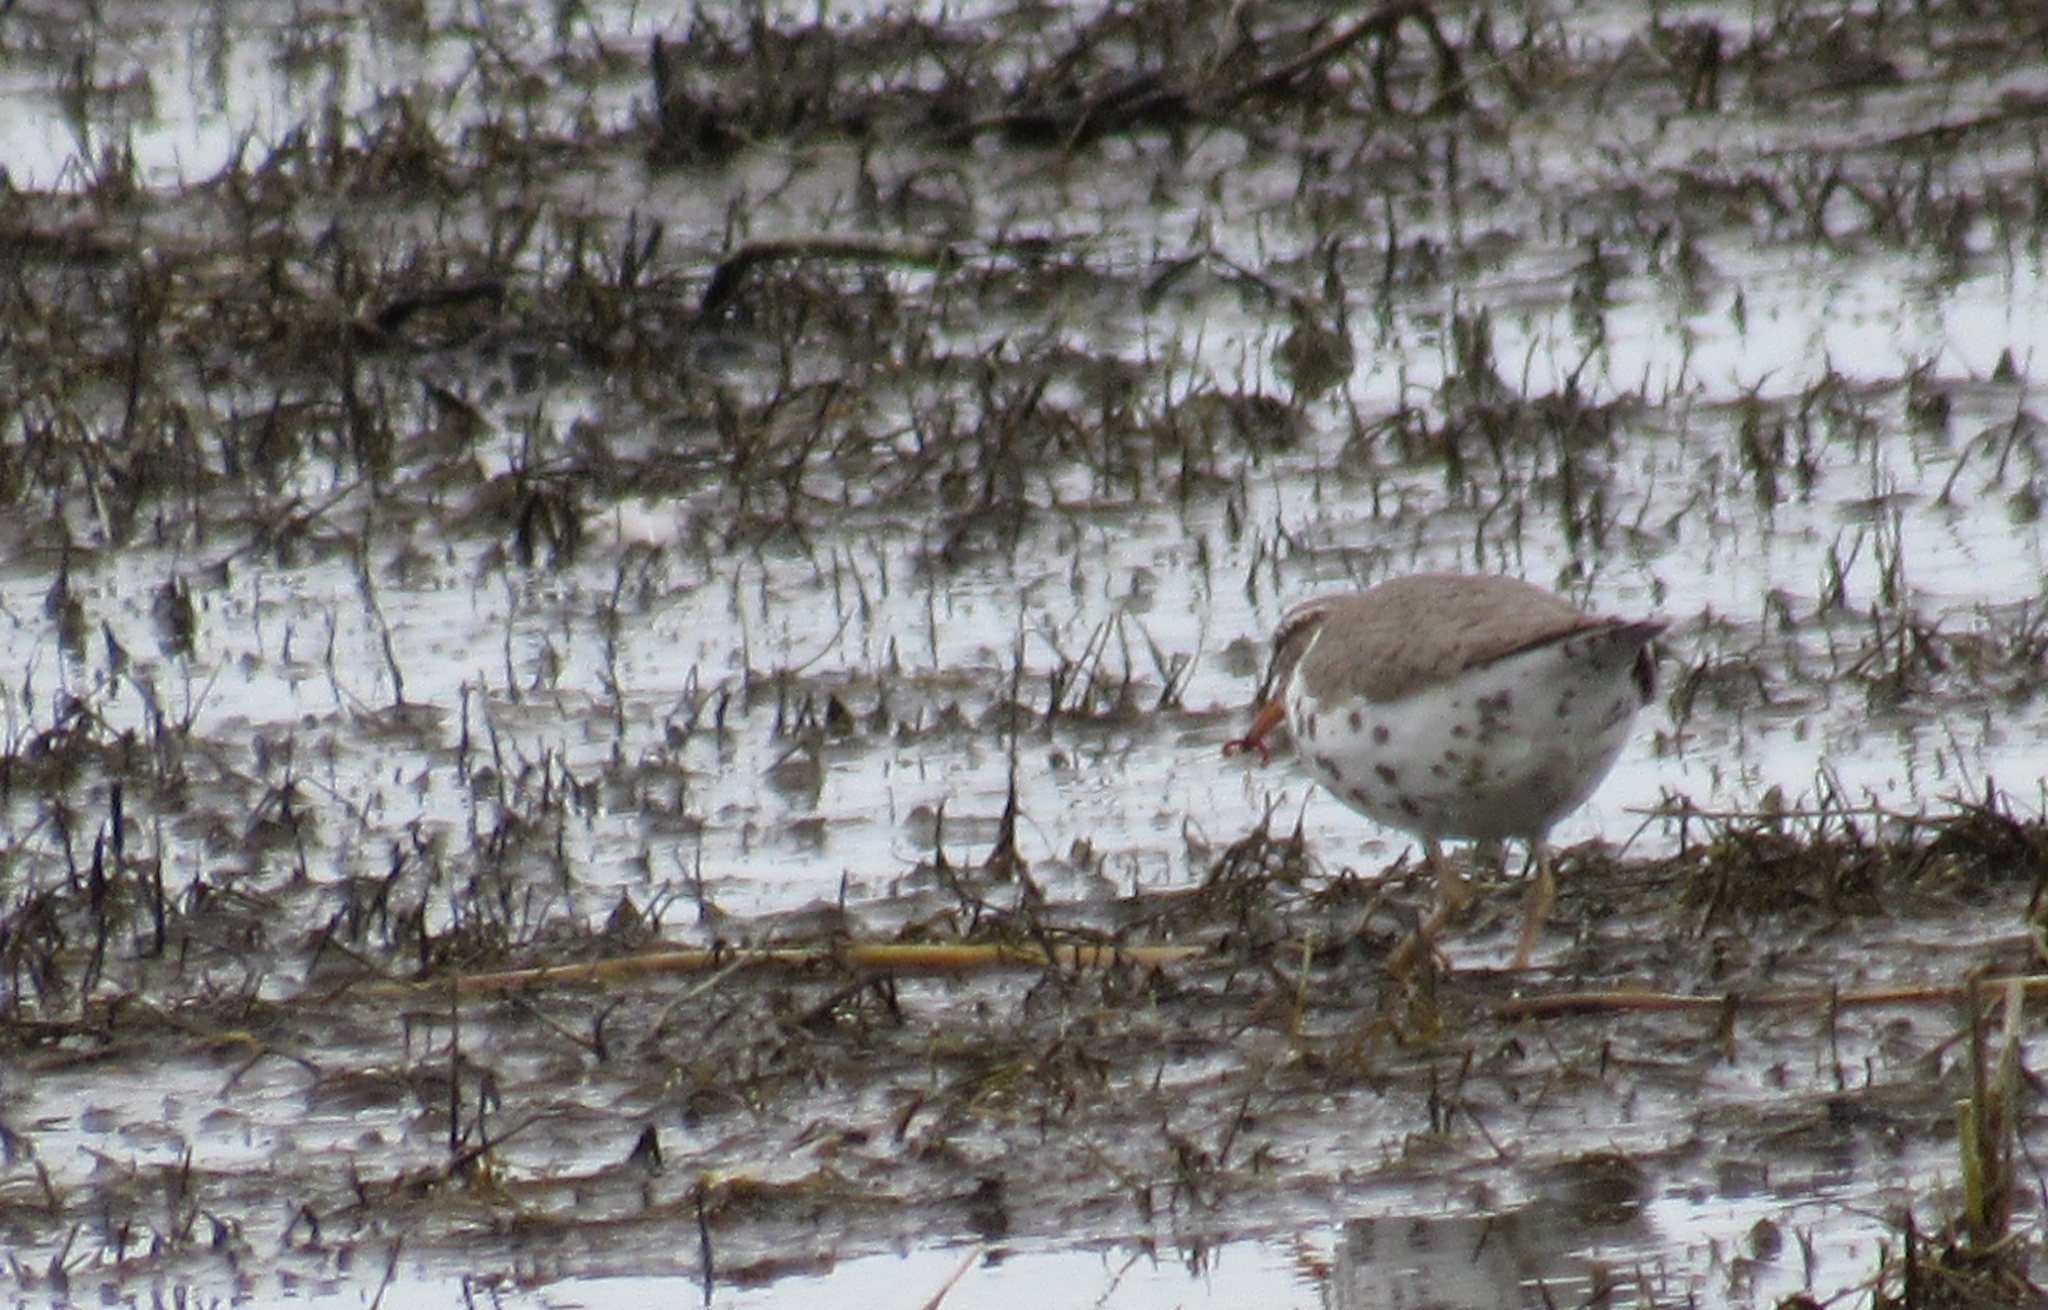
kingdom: Animalia
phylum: Chordata
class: Aves
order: Charadriiformes
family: Scolopacidae
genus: Actitis
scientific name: Actitis macularius
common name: Spotted sandpiper
